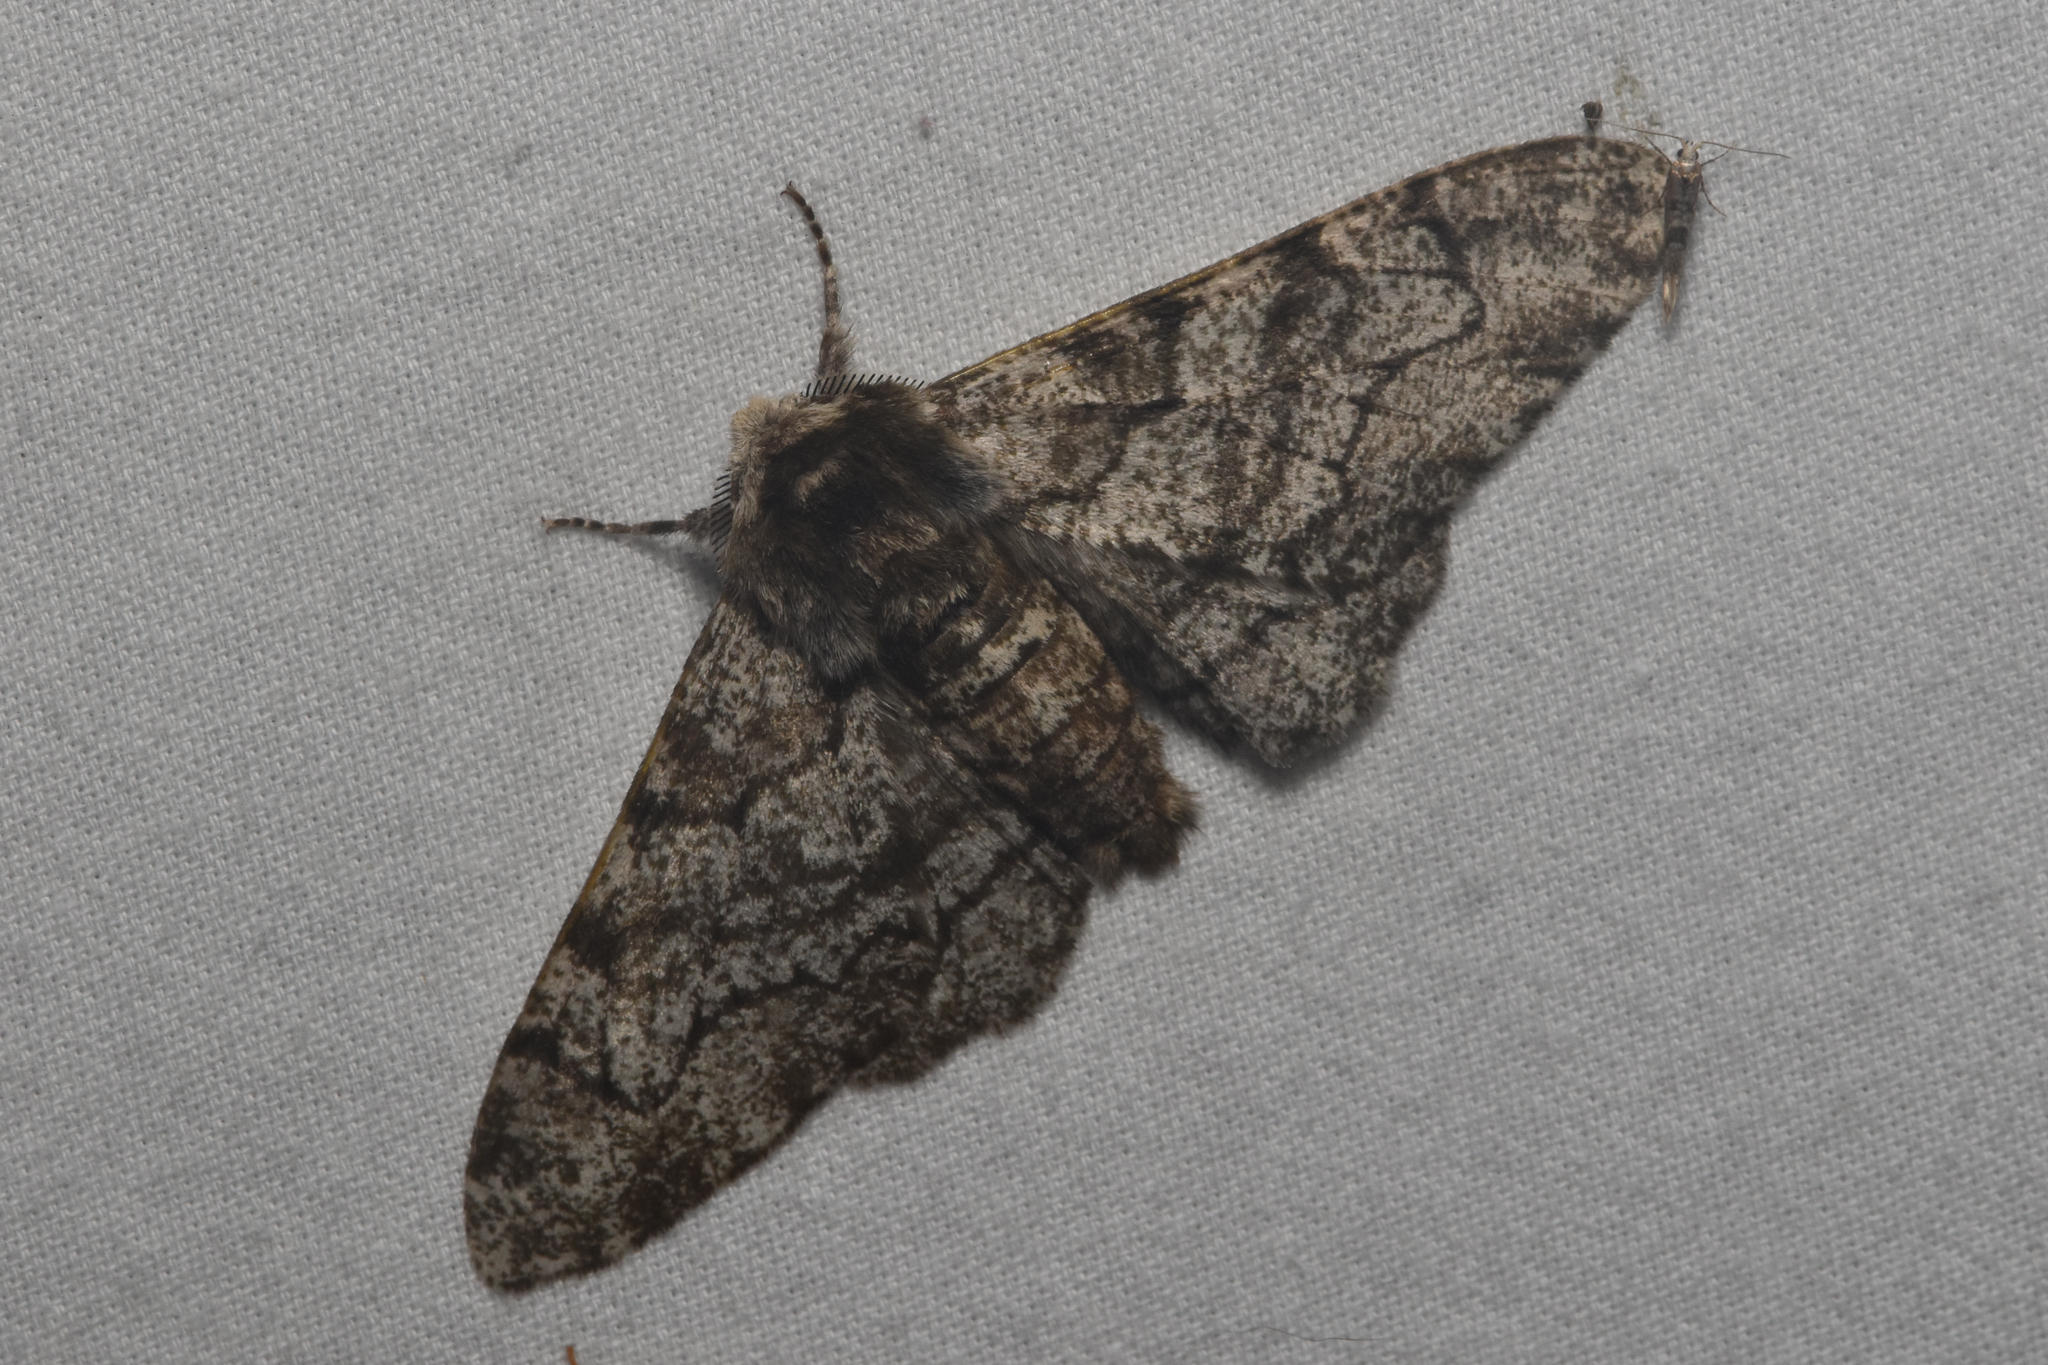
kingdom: Animalia
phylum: Arthropoda
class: Insecta
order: Lepidoptera
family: Geometridae
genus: Biston
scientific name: Biston betularia
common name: Peppered moth
